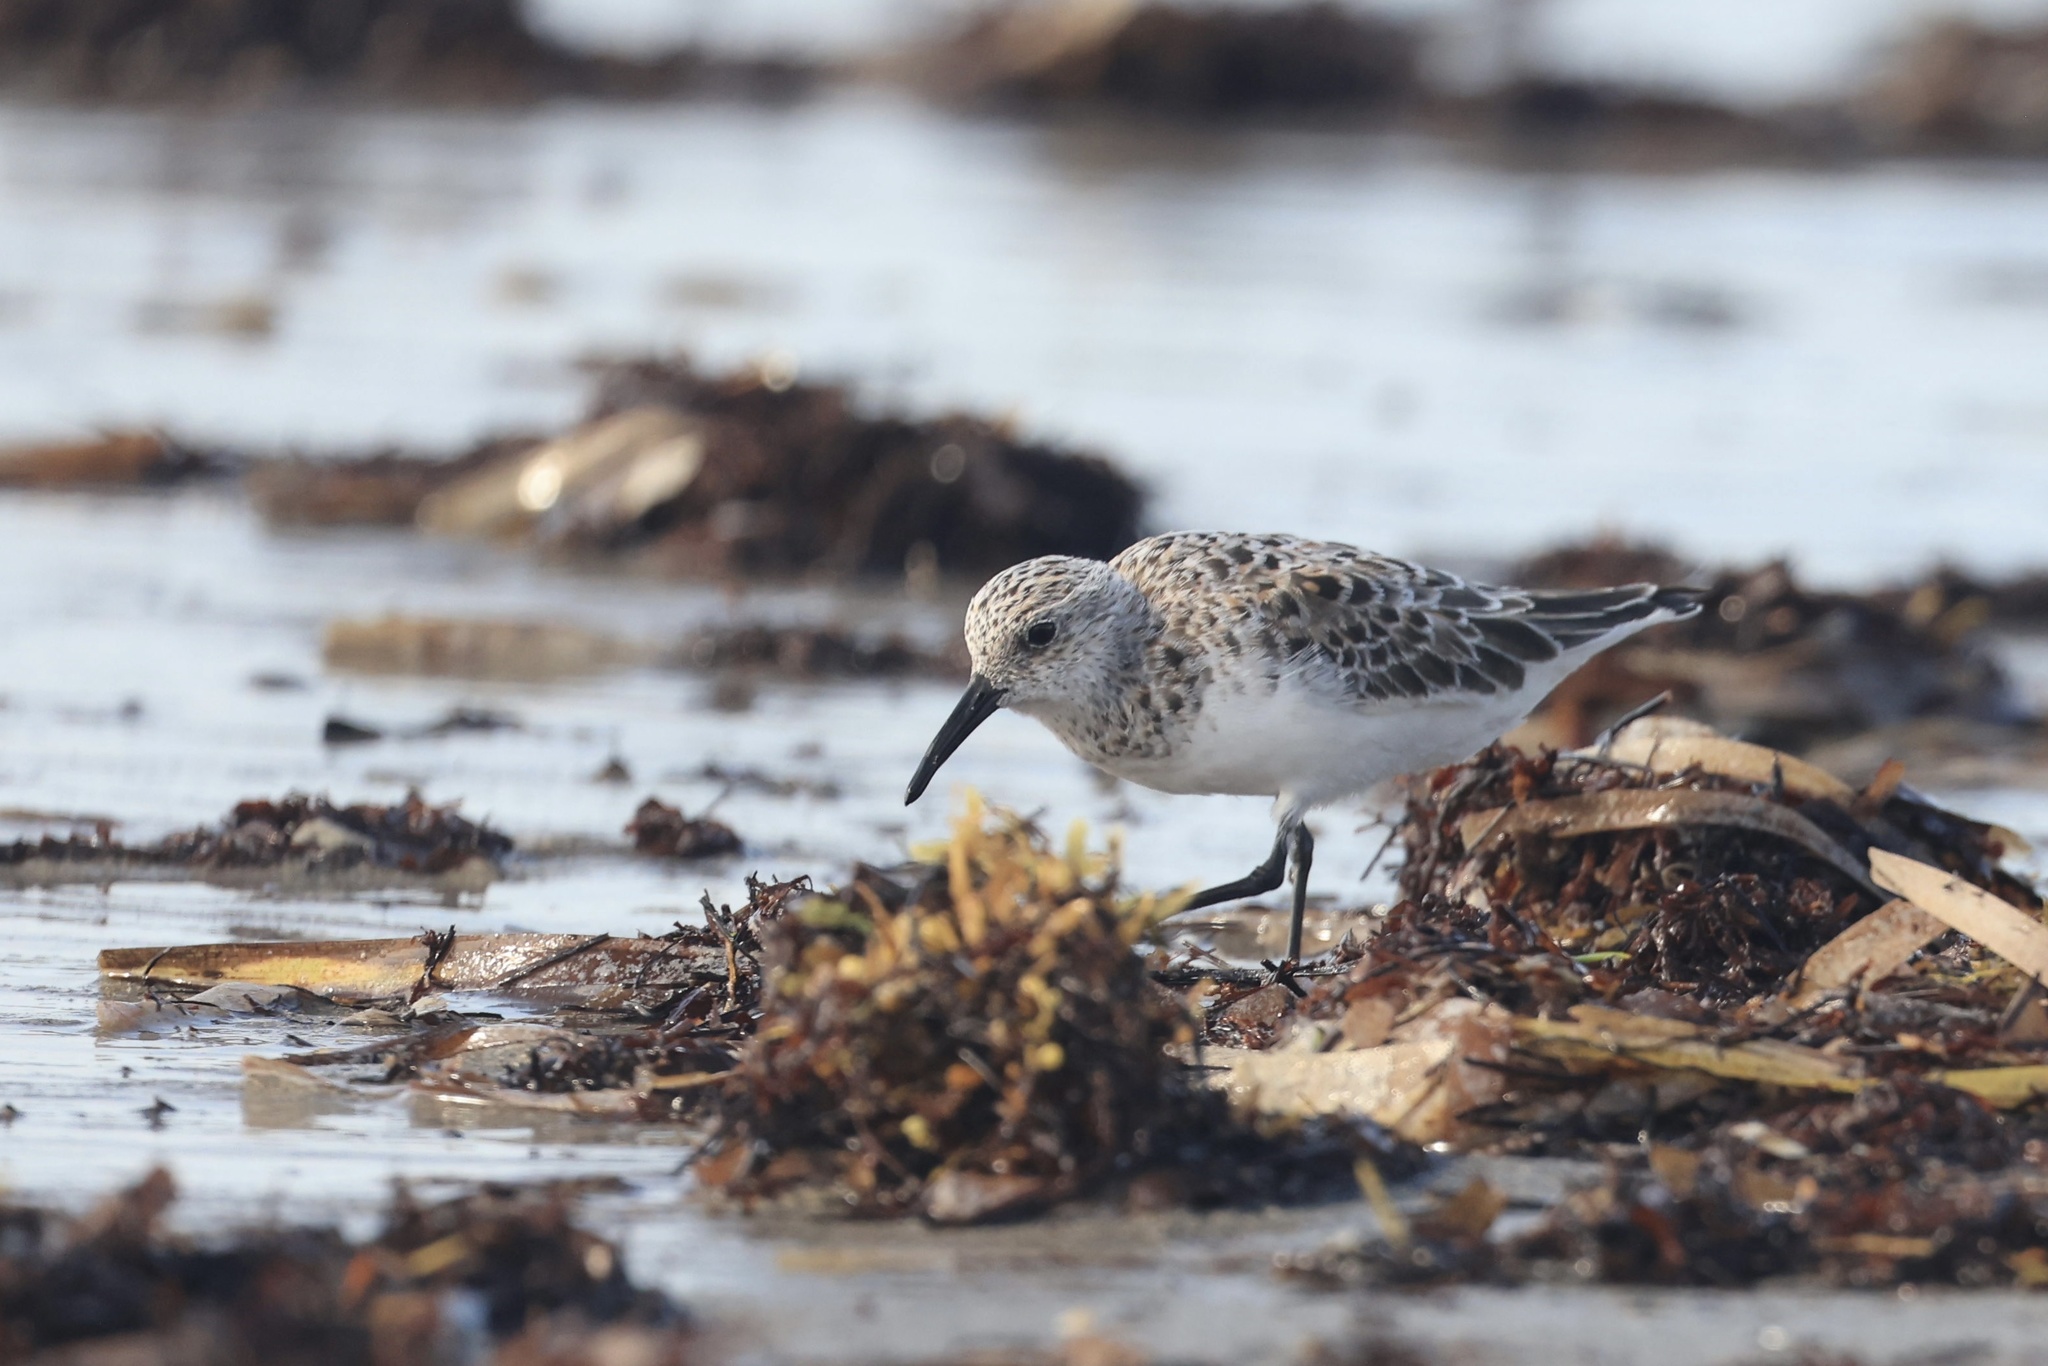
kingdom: Animalia
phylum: Chordata
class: Aves
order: Charadriiformes
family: Scolopacidae
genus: Calidris
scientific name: Calidris alba
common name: Sanderling
